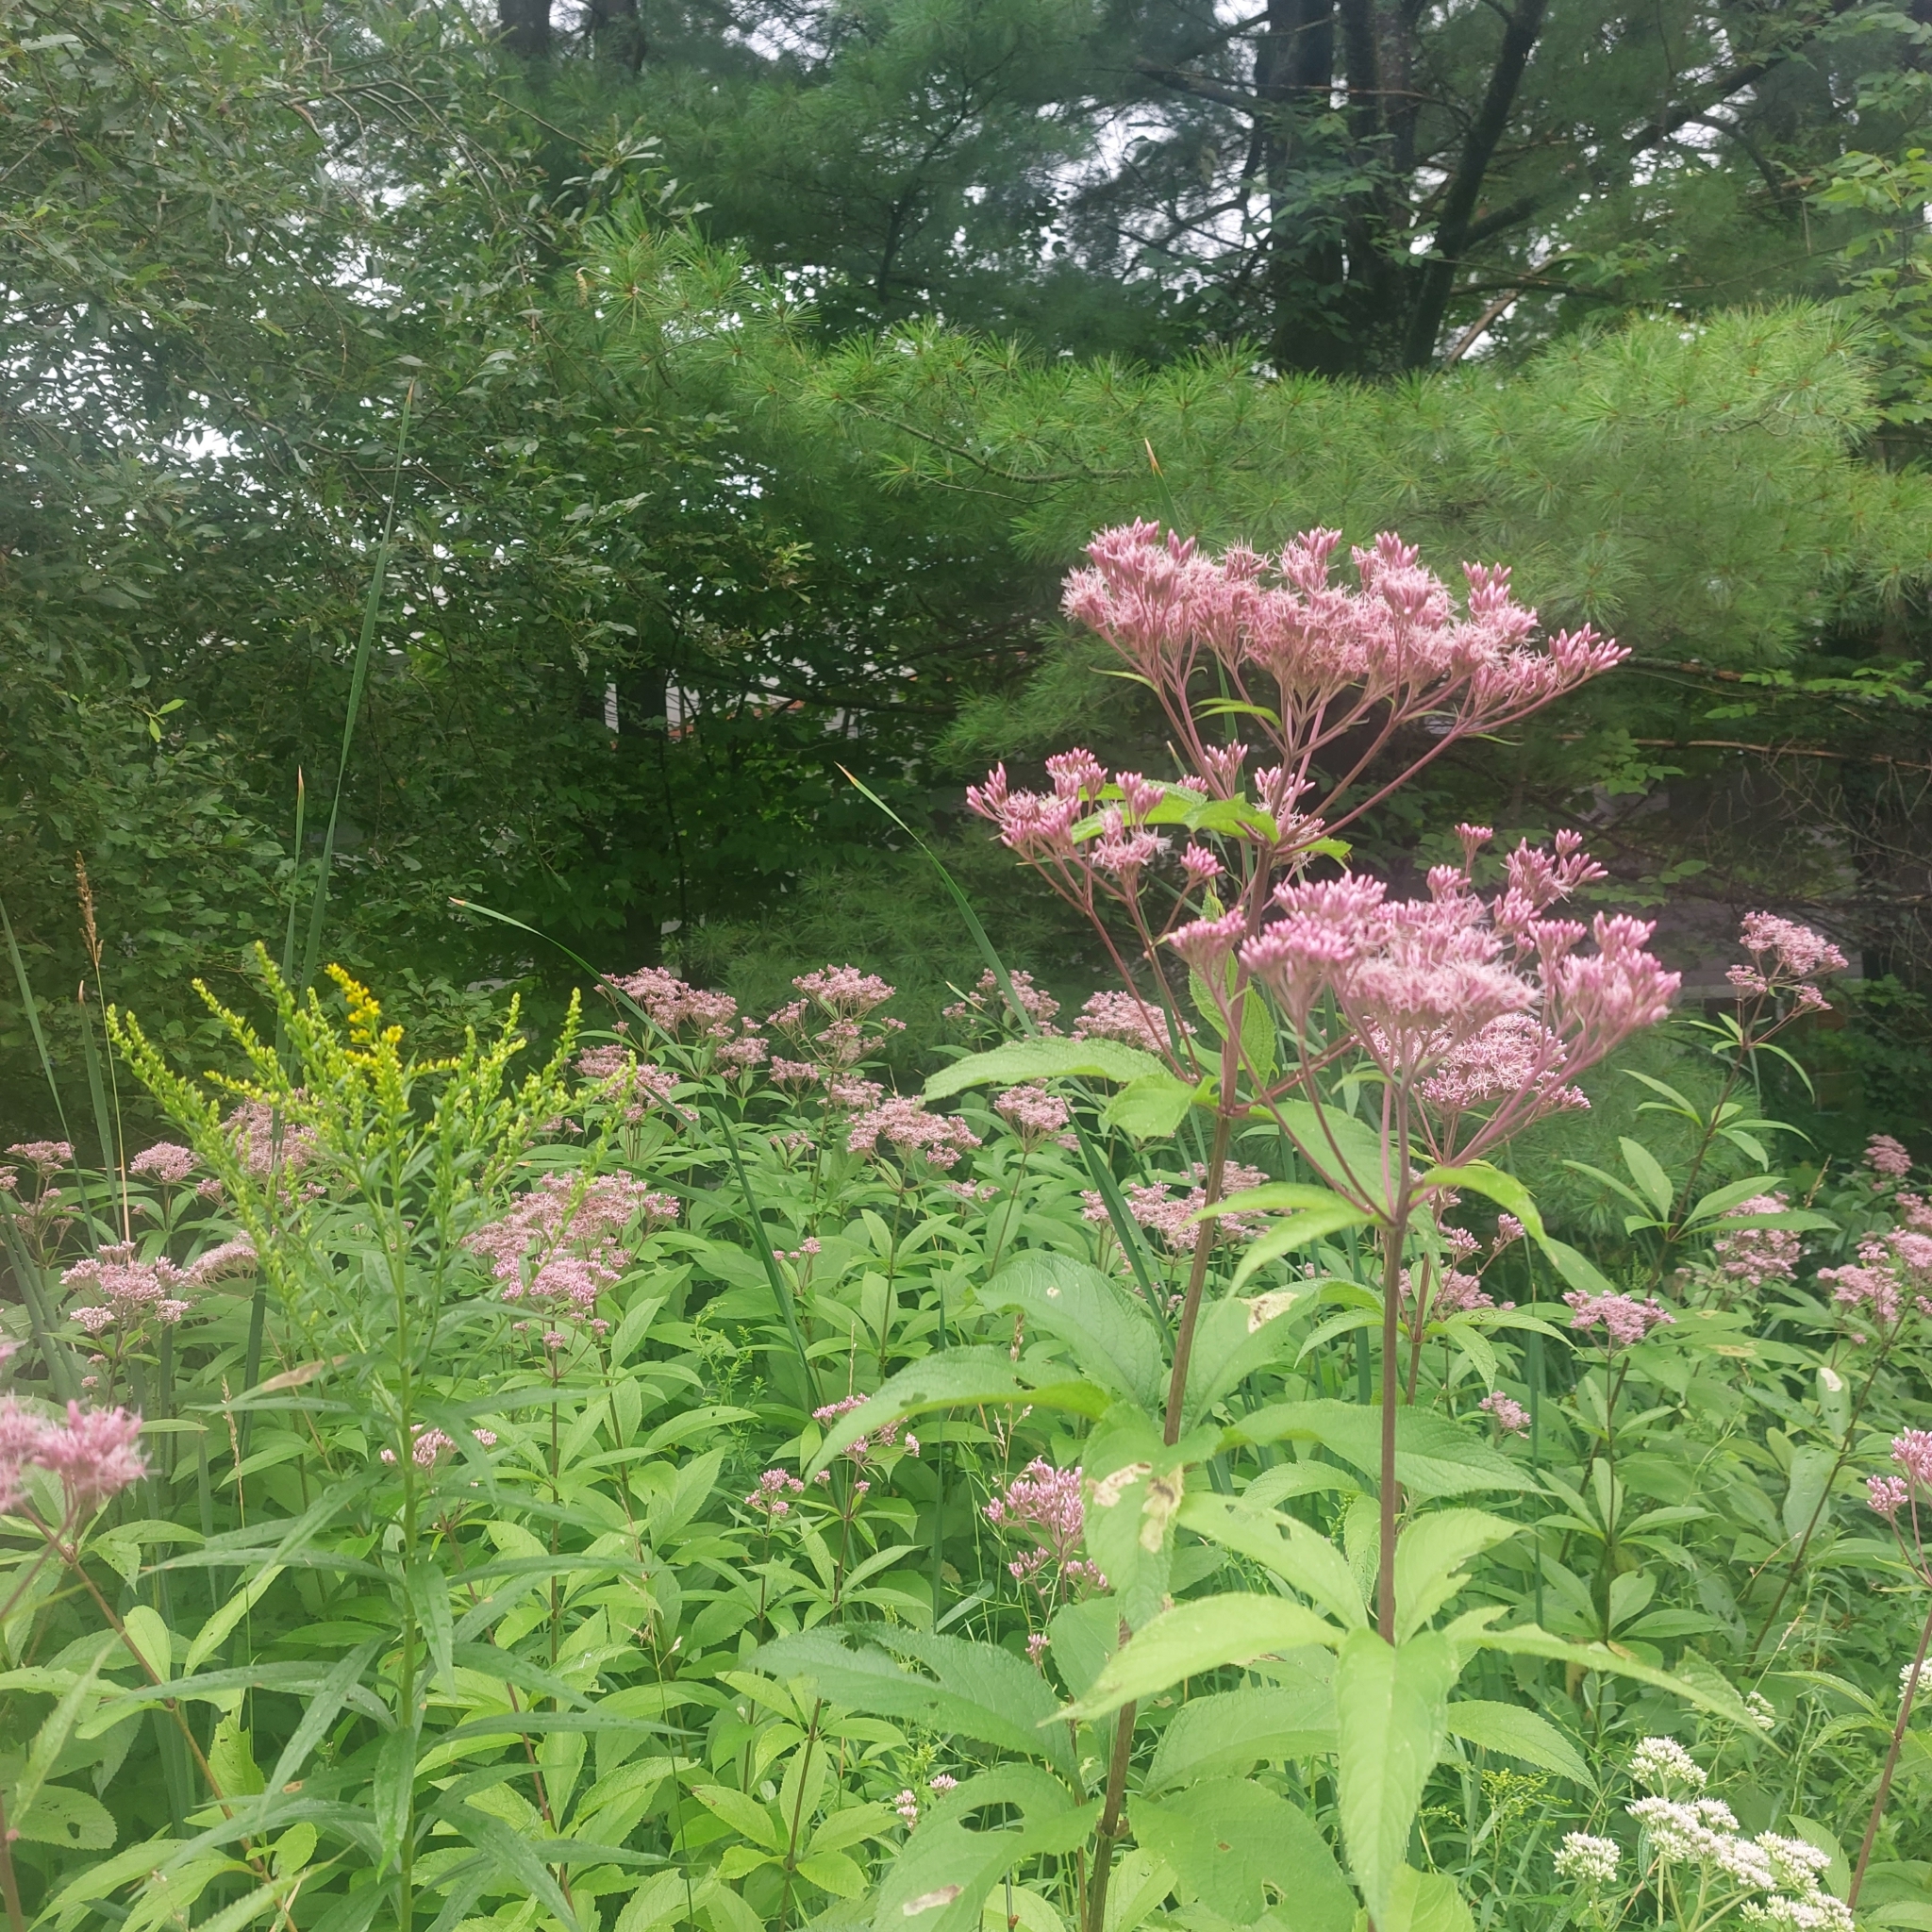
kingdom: Plantae
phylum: Tracheophyta
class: Magnoliopsida
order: Asterales
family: Asteraceae
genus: Eutrochium
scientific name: Eutrochium maculatum
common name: Spotted joe pye weed
